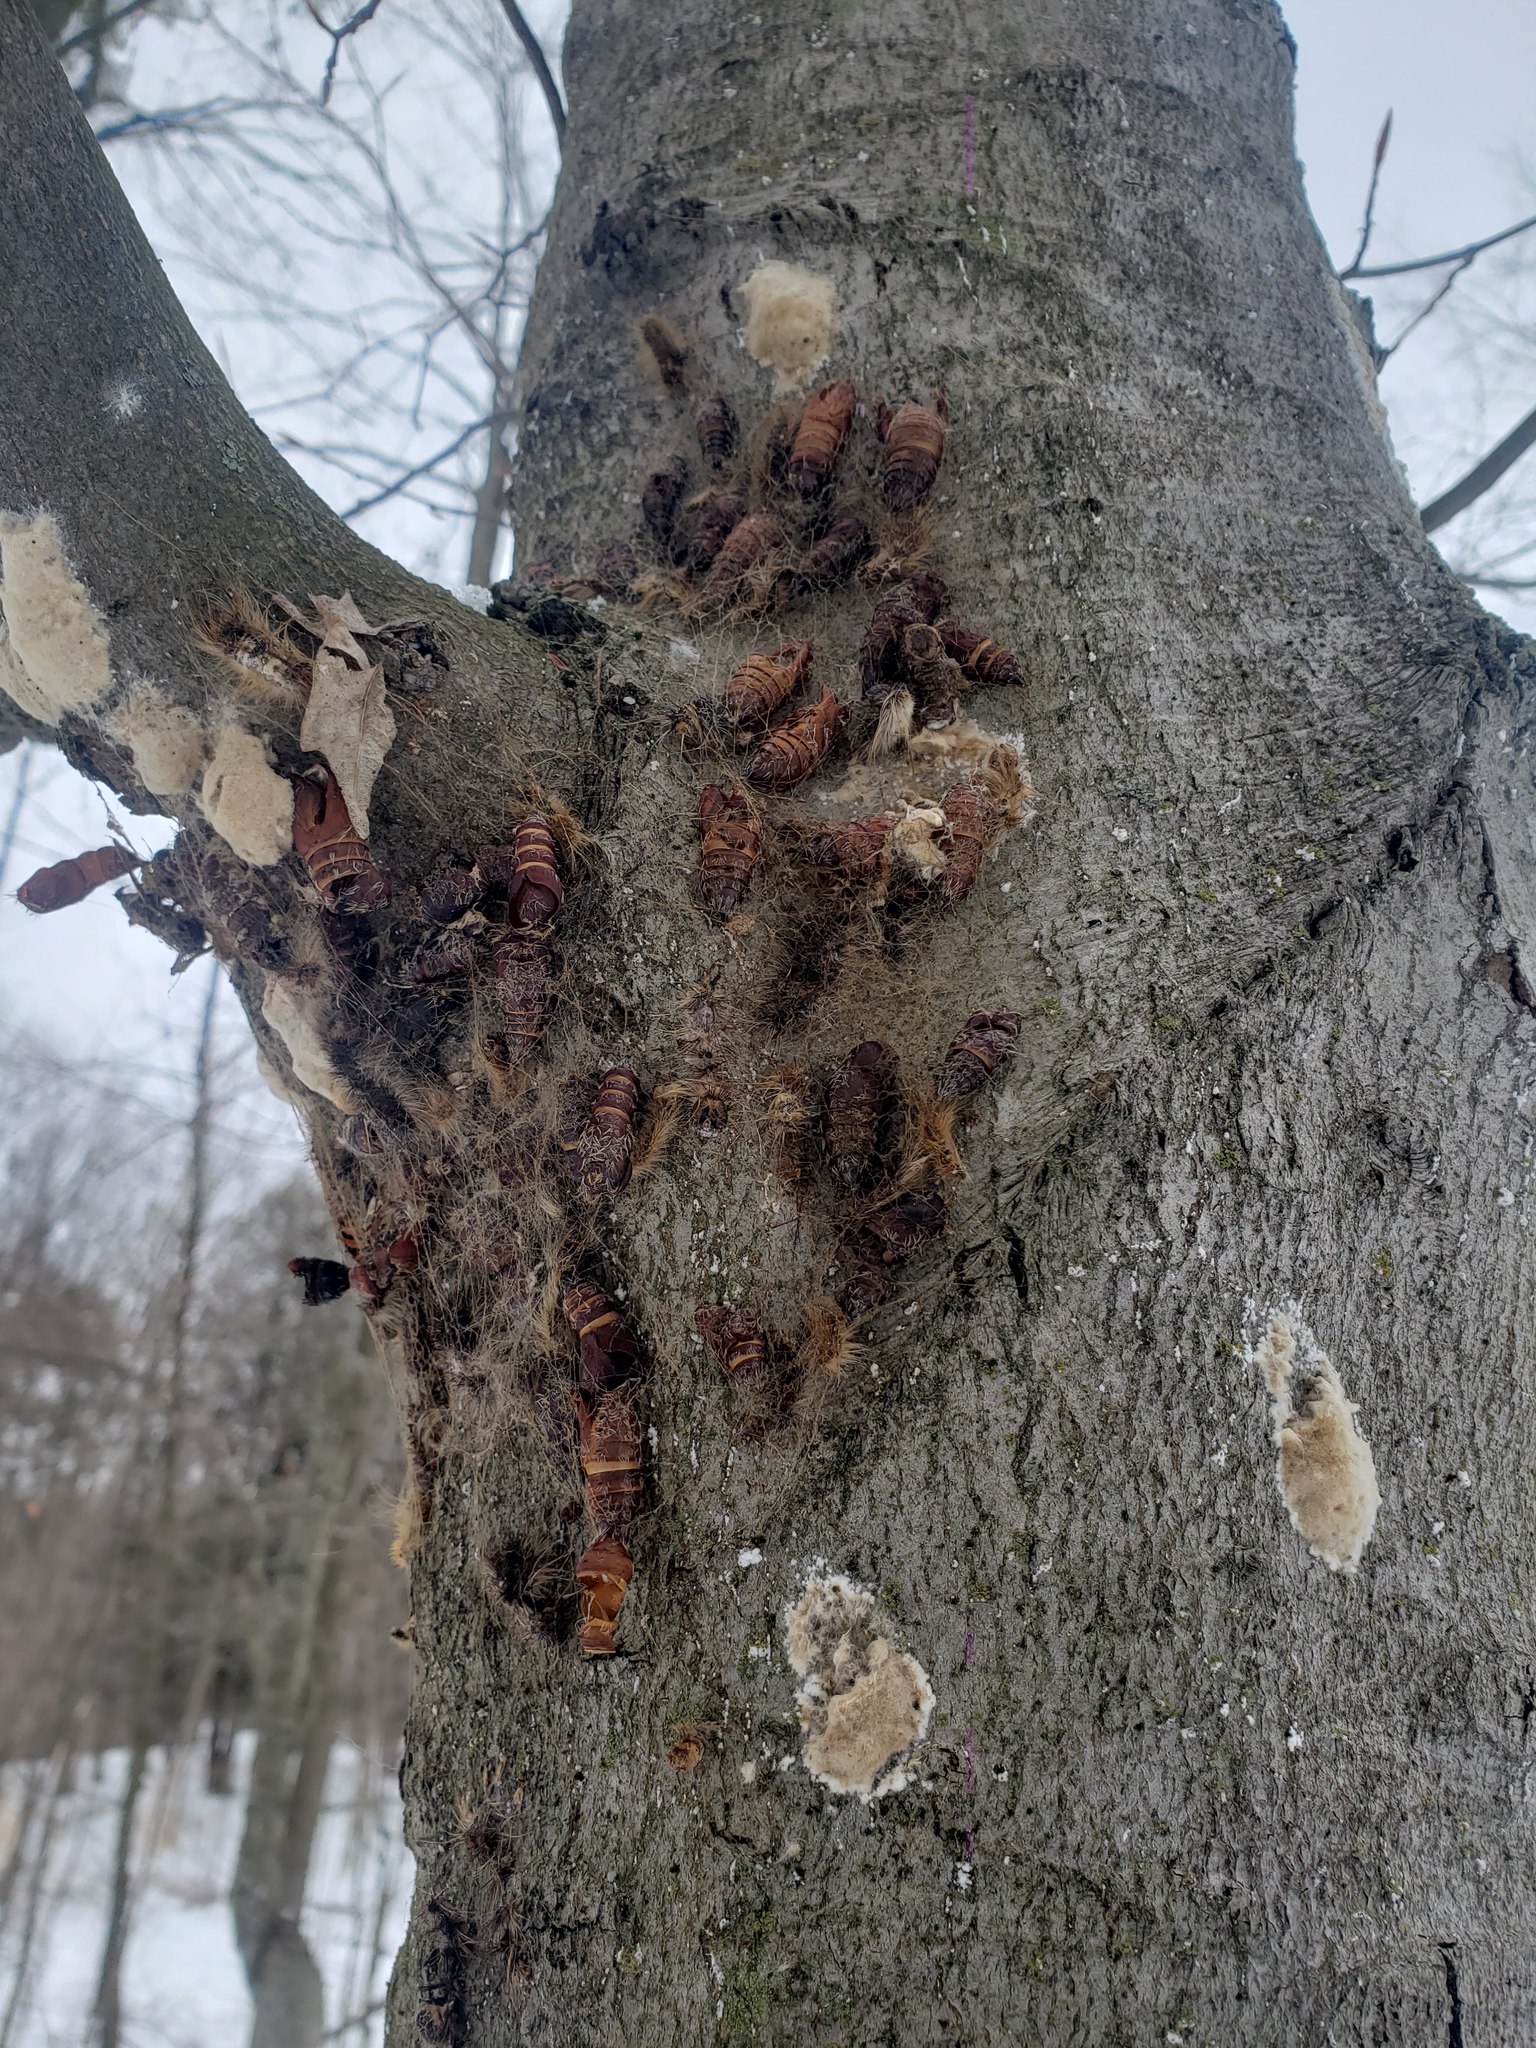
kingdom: Animalia
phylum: Arthropoda
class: Insecta
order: Lepidoptera
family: Erebidae
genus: Lymantria
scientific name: Lymantria dispar
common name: Gypsy moth
